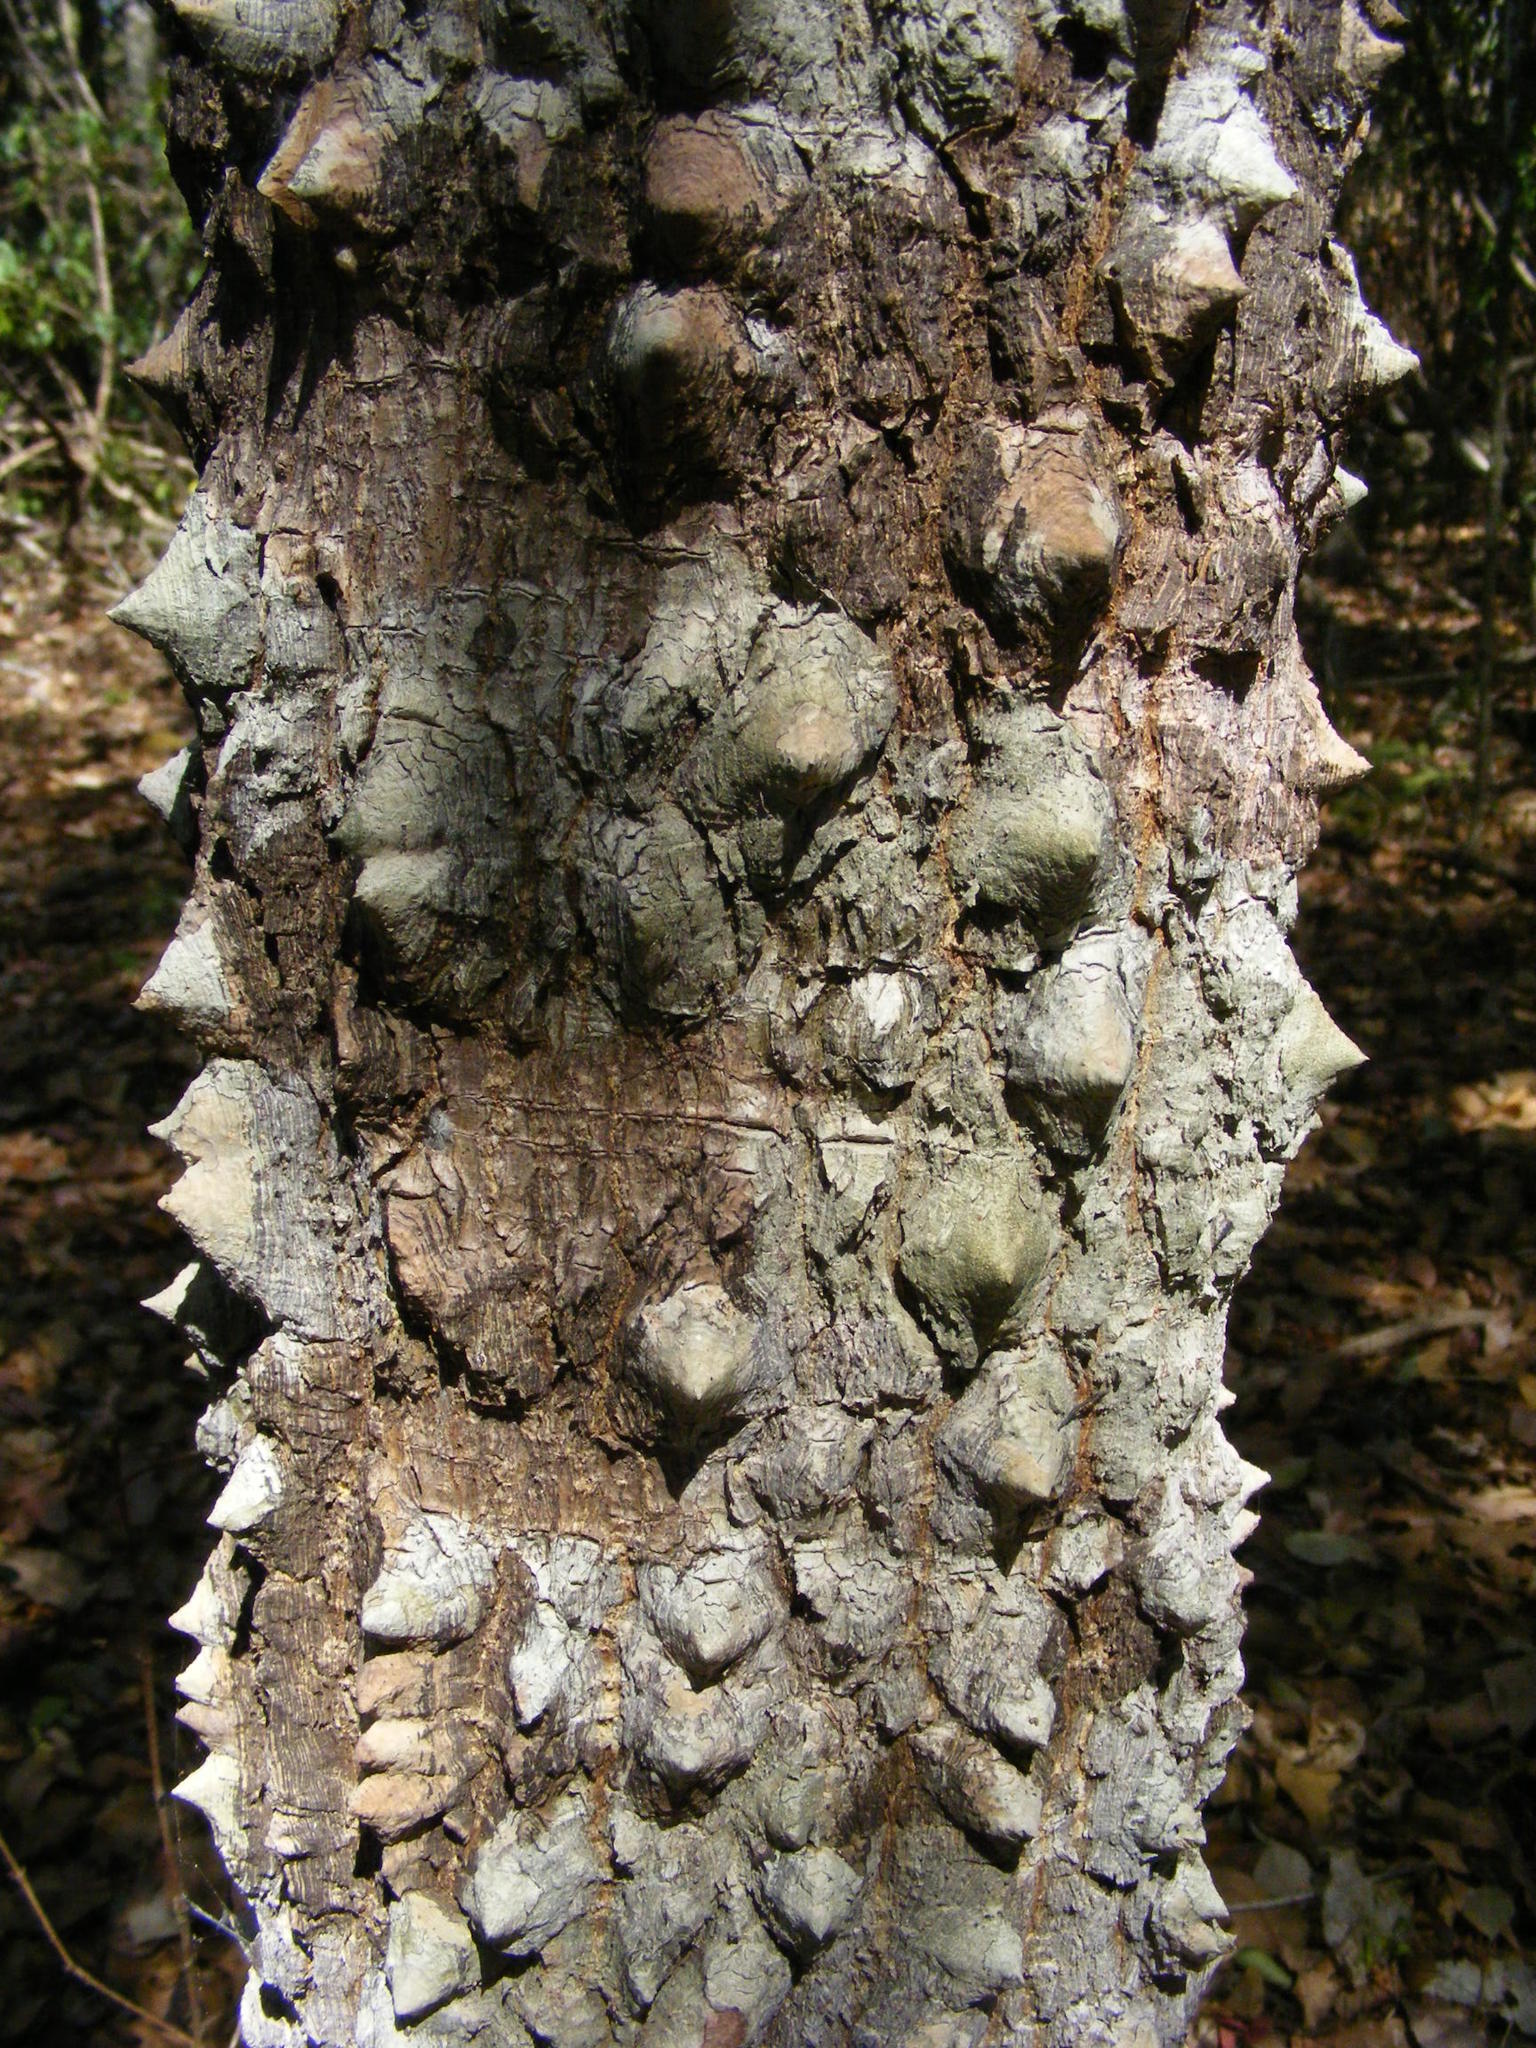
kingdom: Plantae
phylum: Tracheophyta
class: Magnoliopsida
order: Malvales
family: Malvaceae
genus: Bombax
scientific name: Bombax ceiba
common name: Northern-cottonwood
